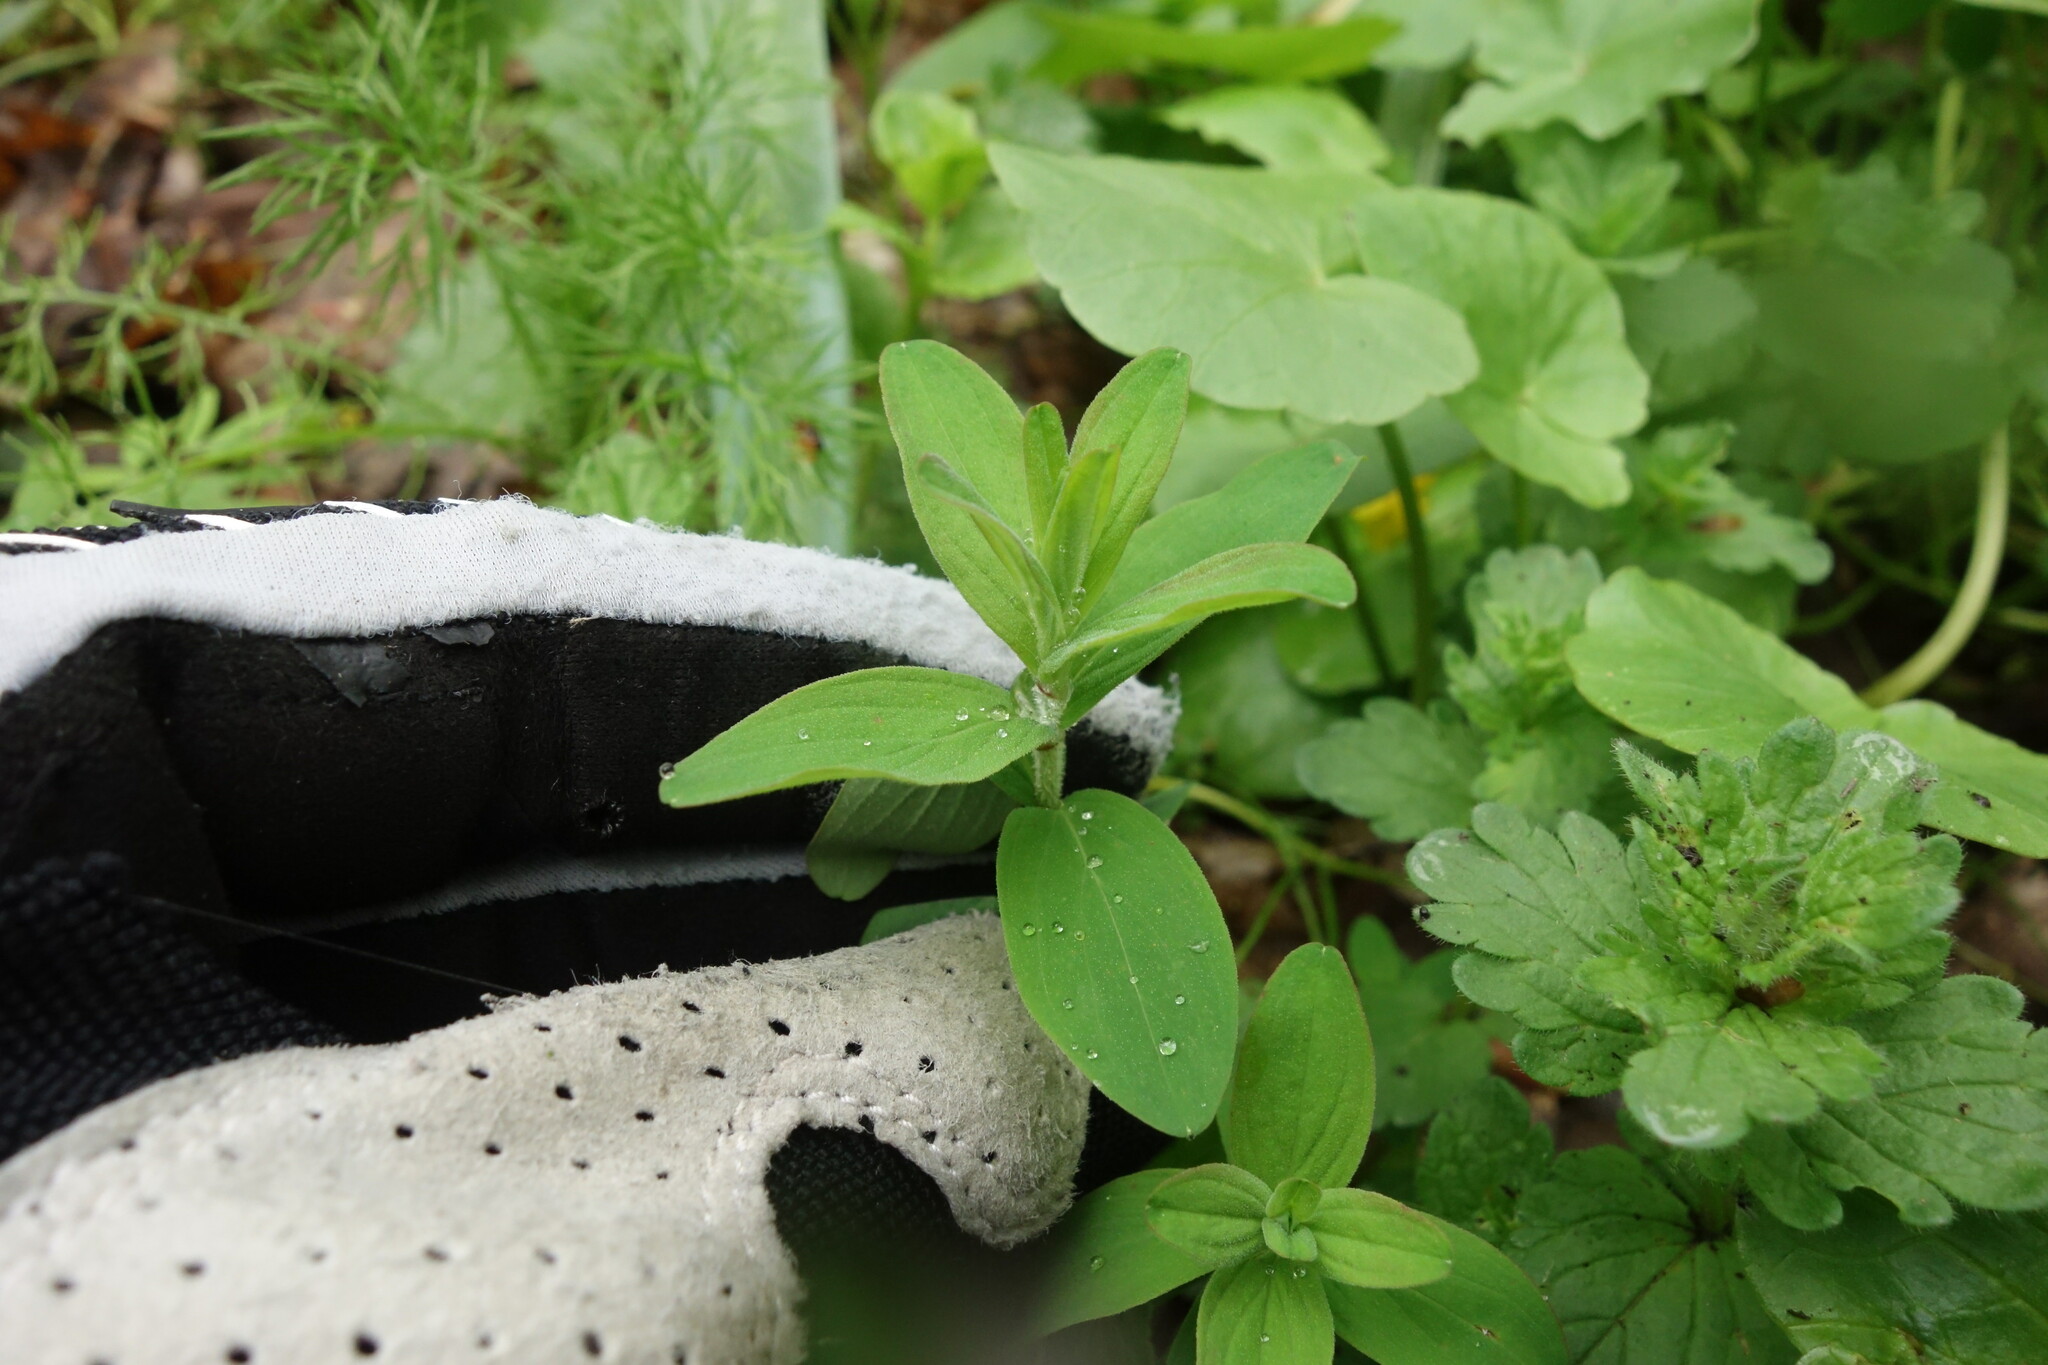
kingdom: Plantae
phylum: Tracheophyta
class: Magnoliopsida
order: Malpighiales
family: Hypericaceae
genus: Hypericum
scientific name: Hypericum hirsutum
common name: Hairy st. john's-wort
